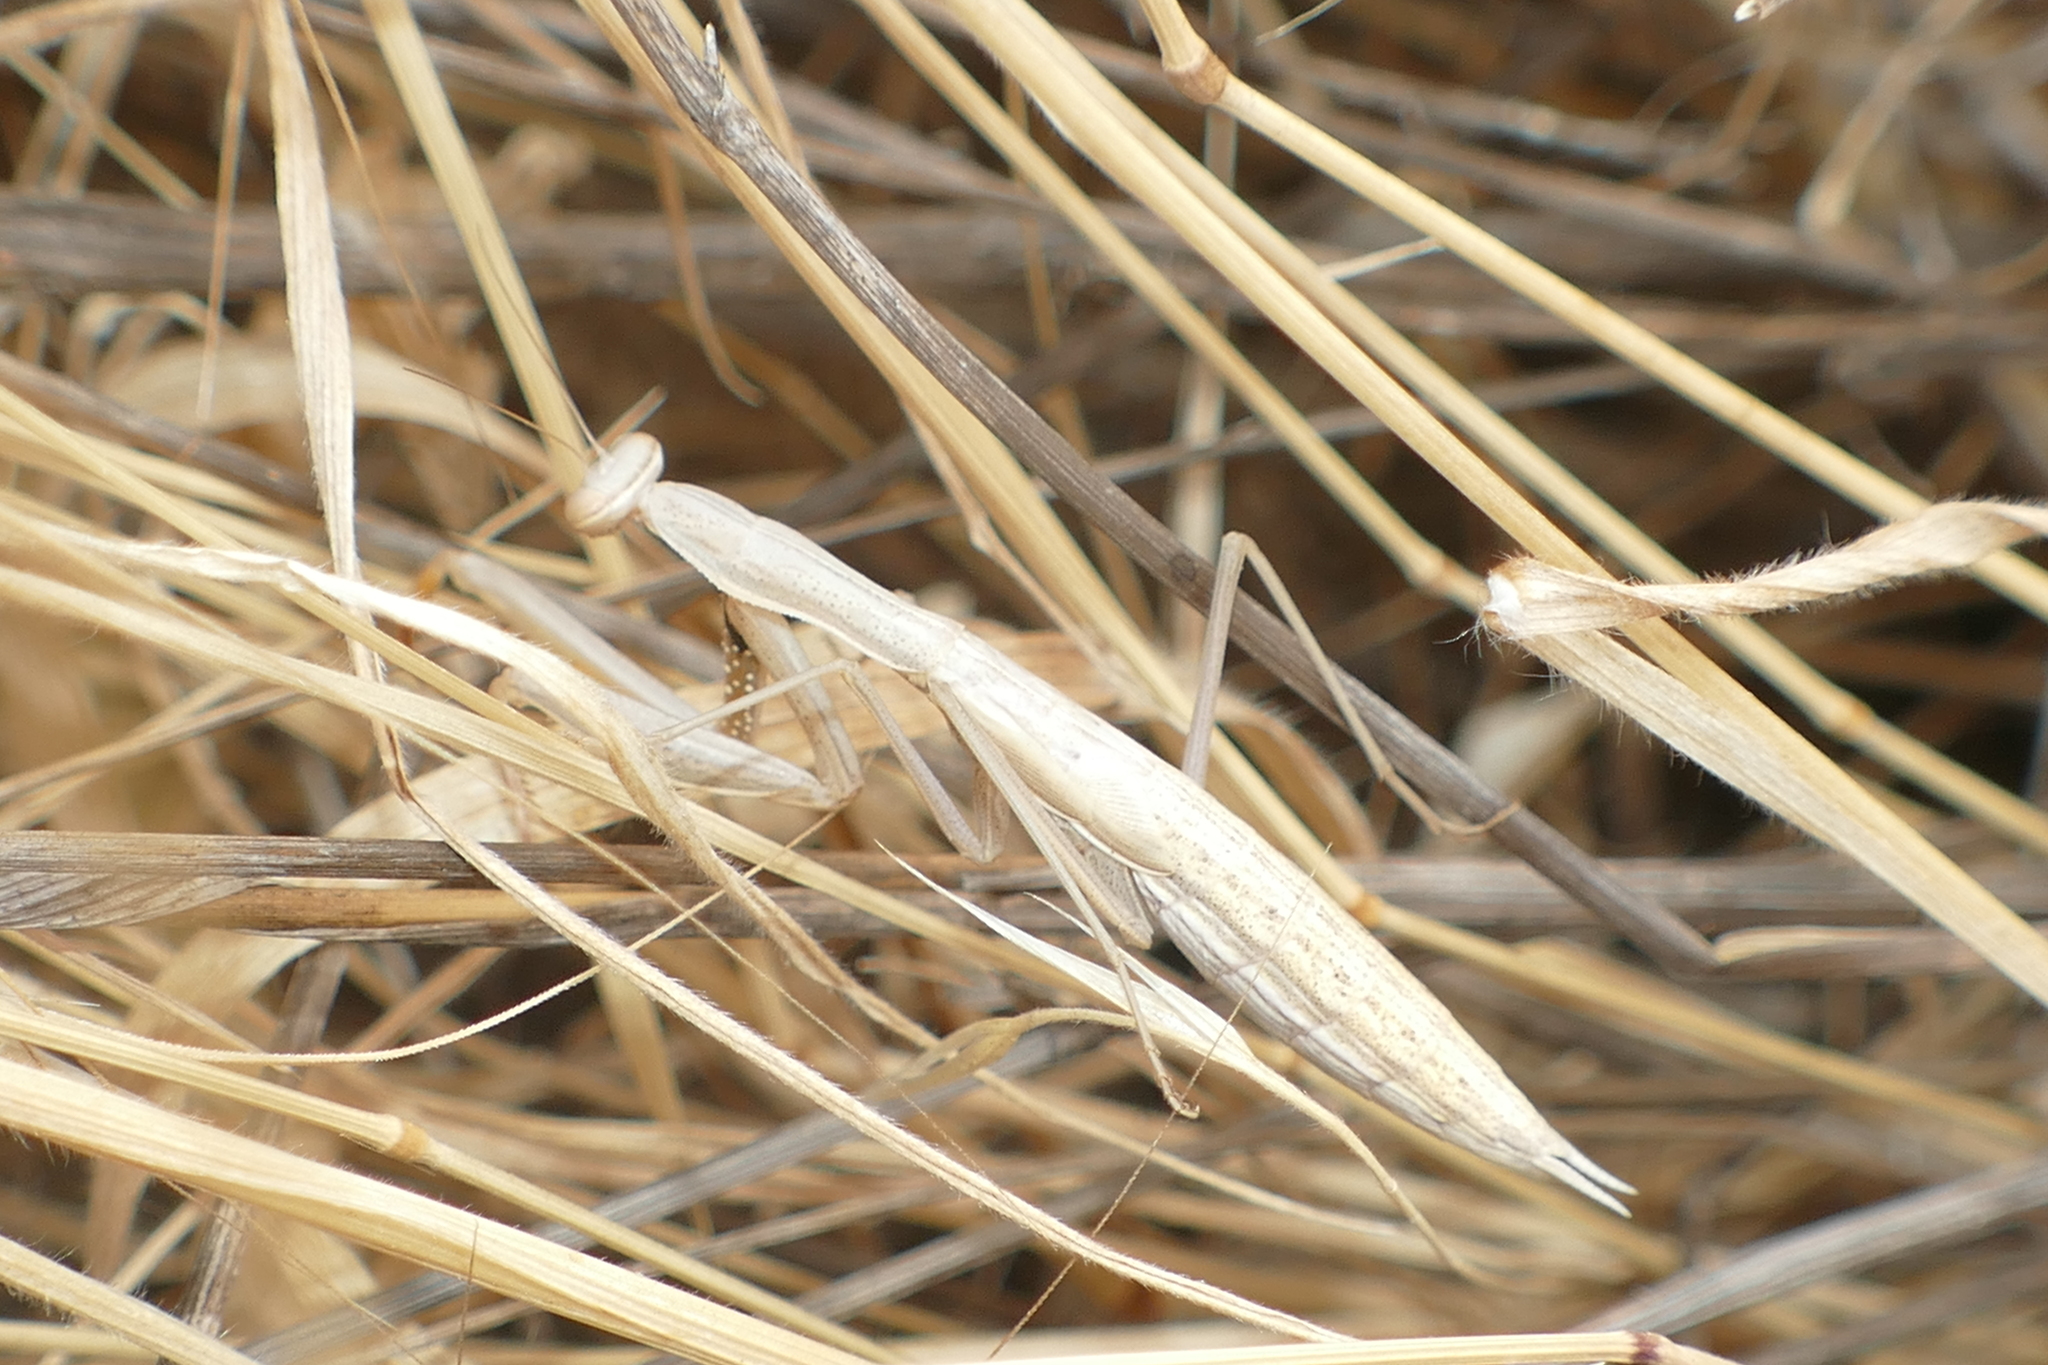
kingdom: Animalia
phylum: Arthropoda
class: Insecta
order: Mantodea
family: Mantidae
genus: Mantis
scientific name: Mantis religiosa
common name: Praying mantis
